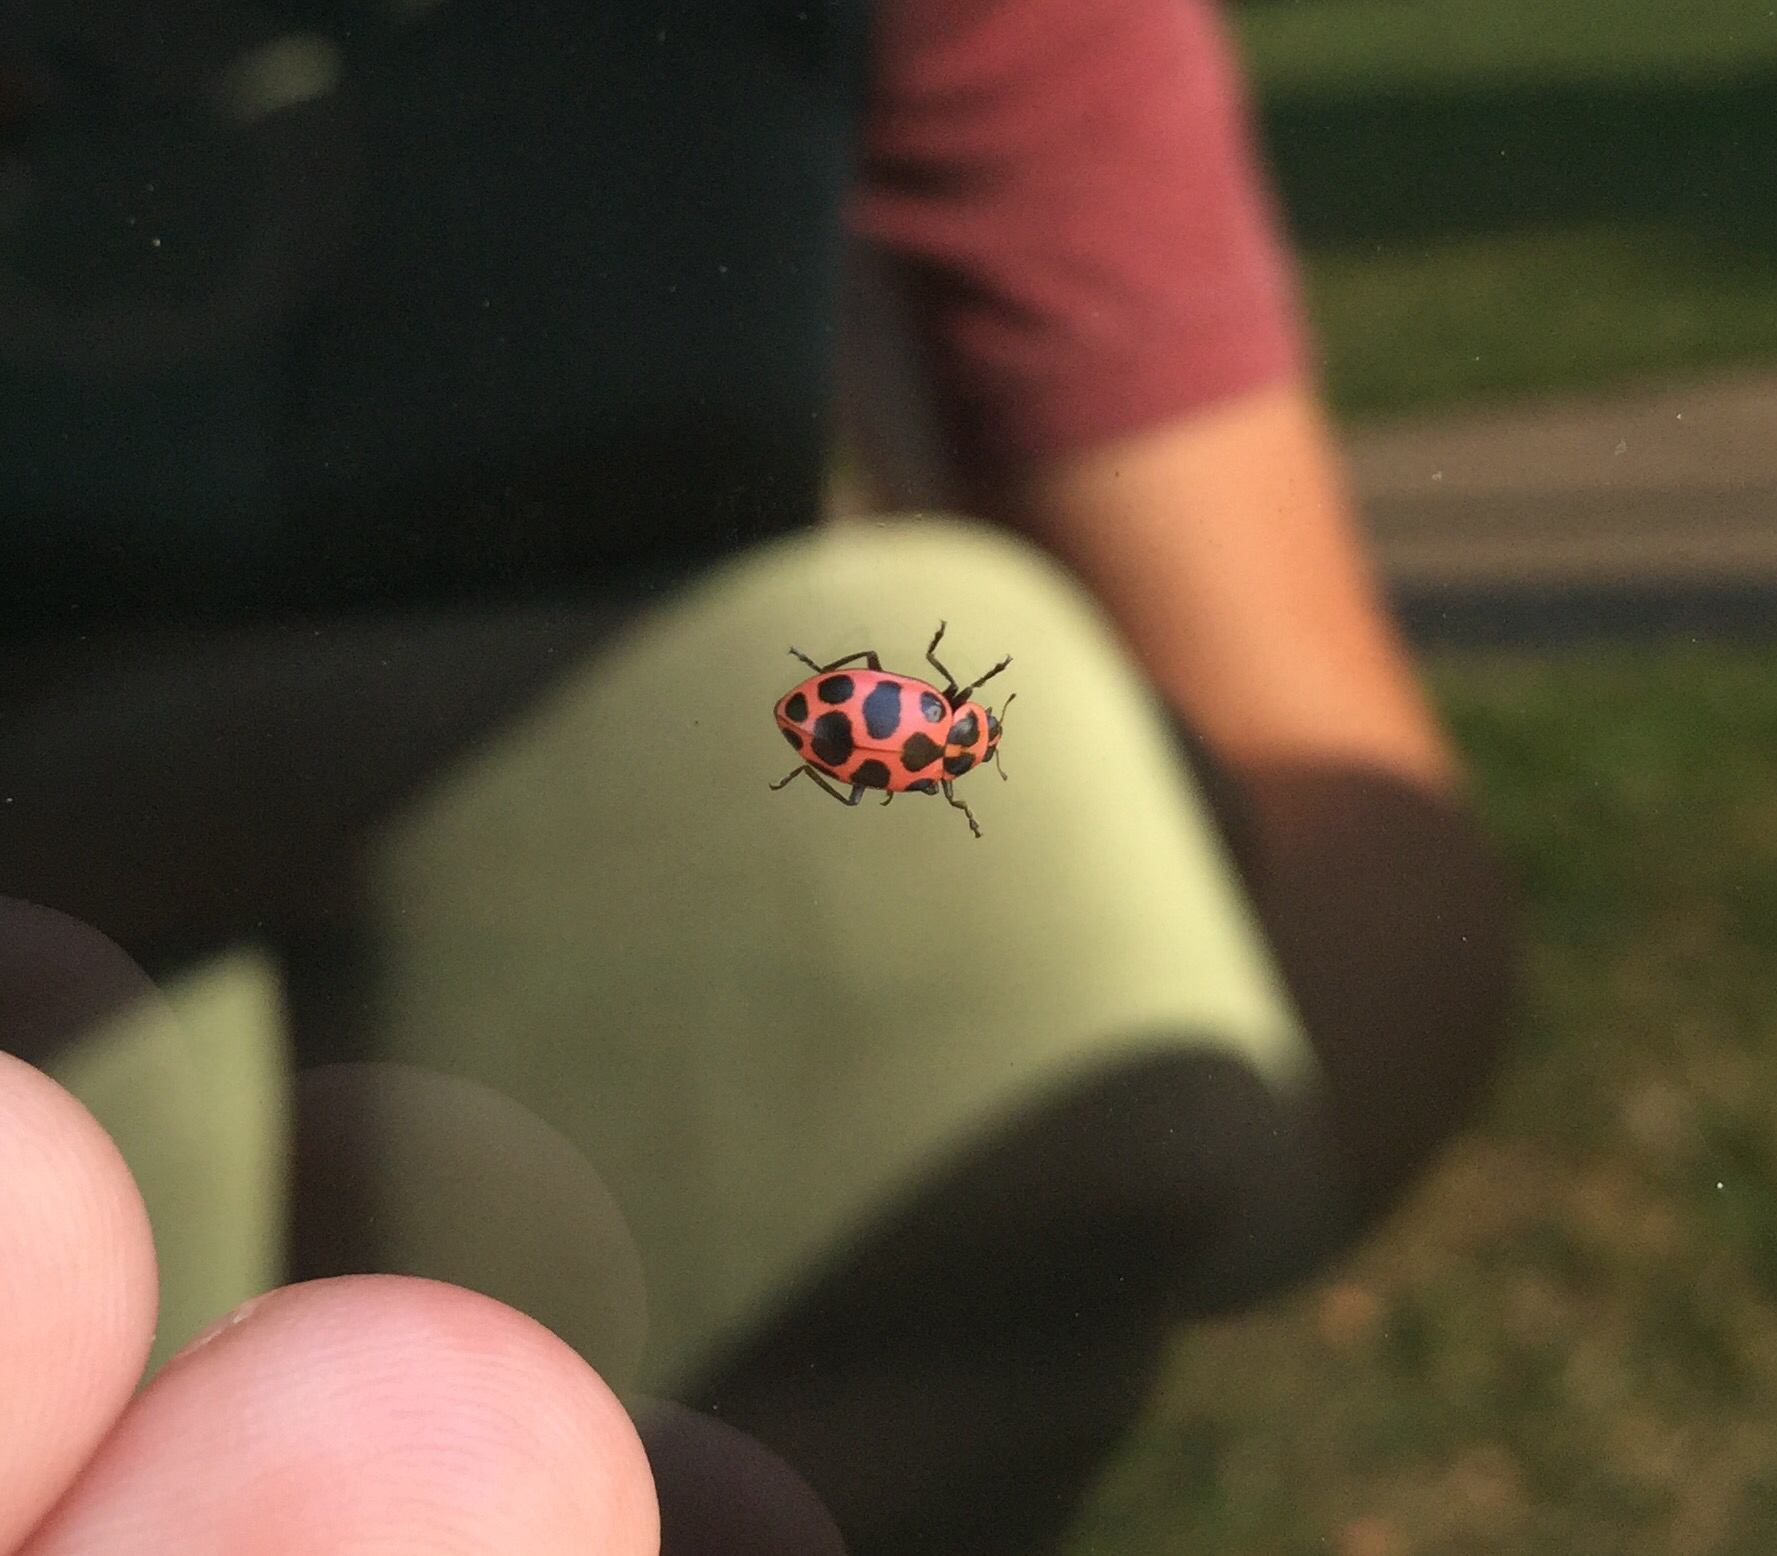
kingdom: Animalia
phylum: Arthropoda
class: Insecta
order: Coleoptera
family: Coccinellidae
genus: Coleomegilla
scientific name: Coleomegilla maculata
